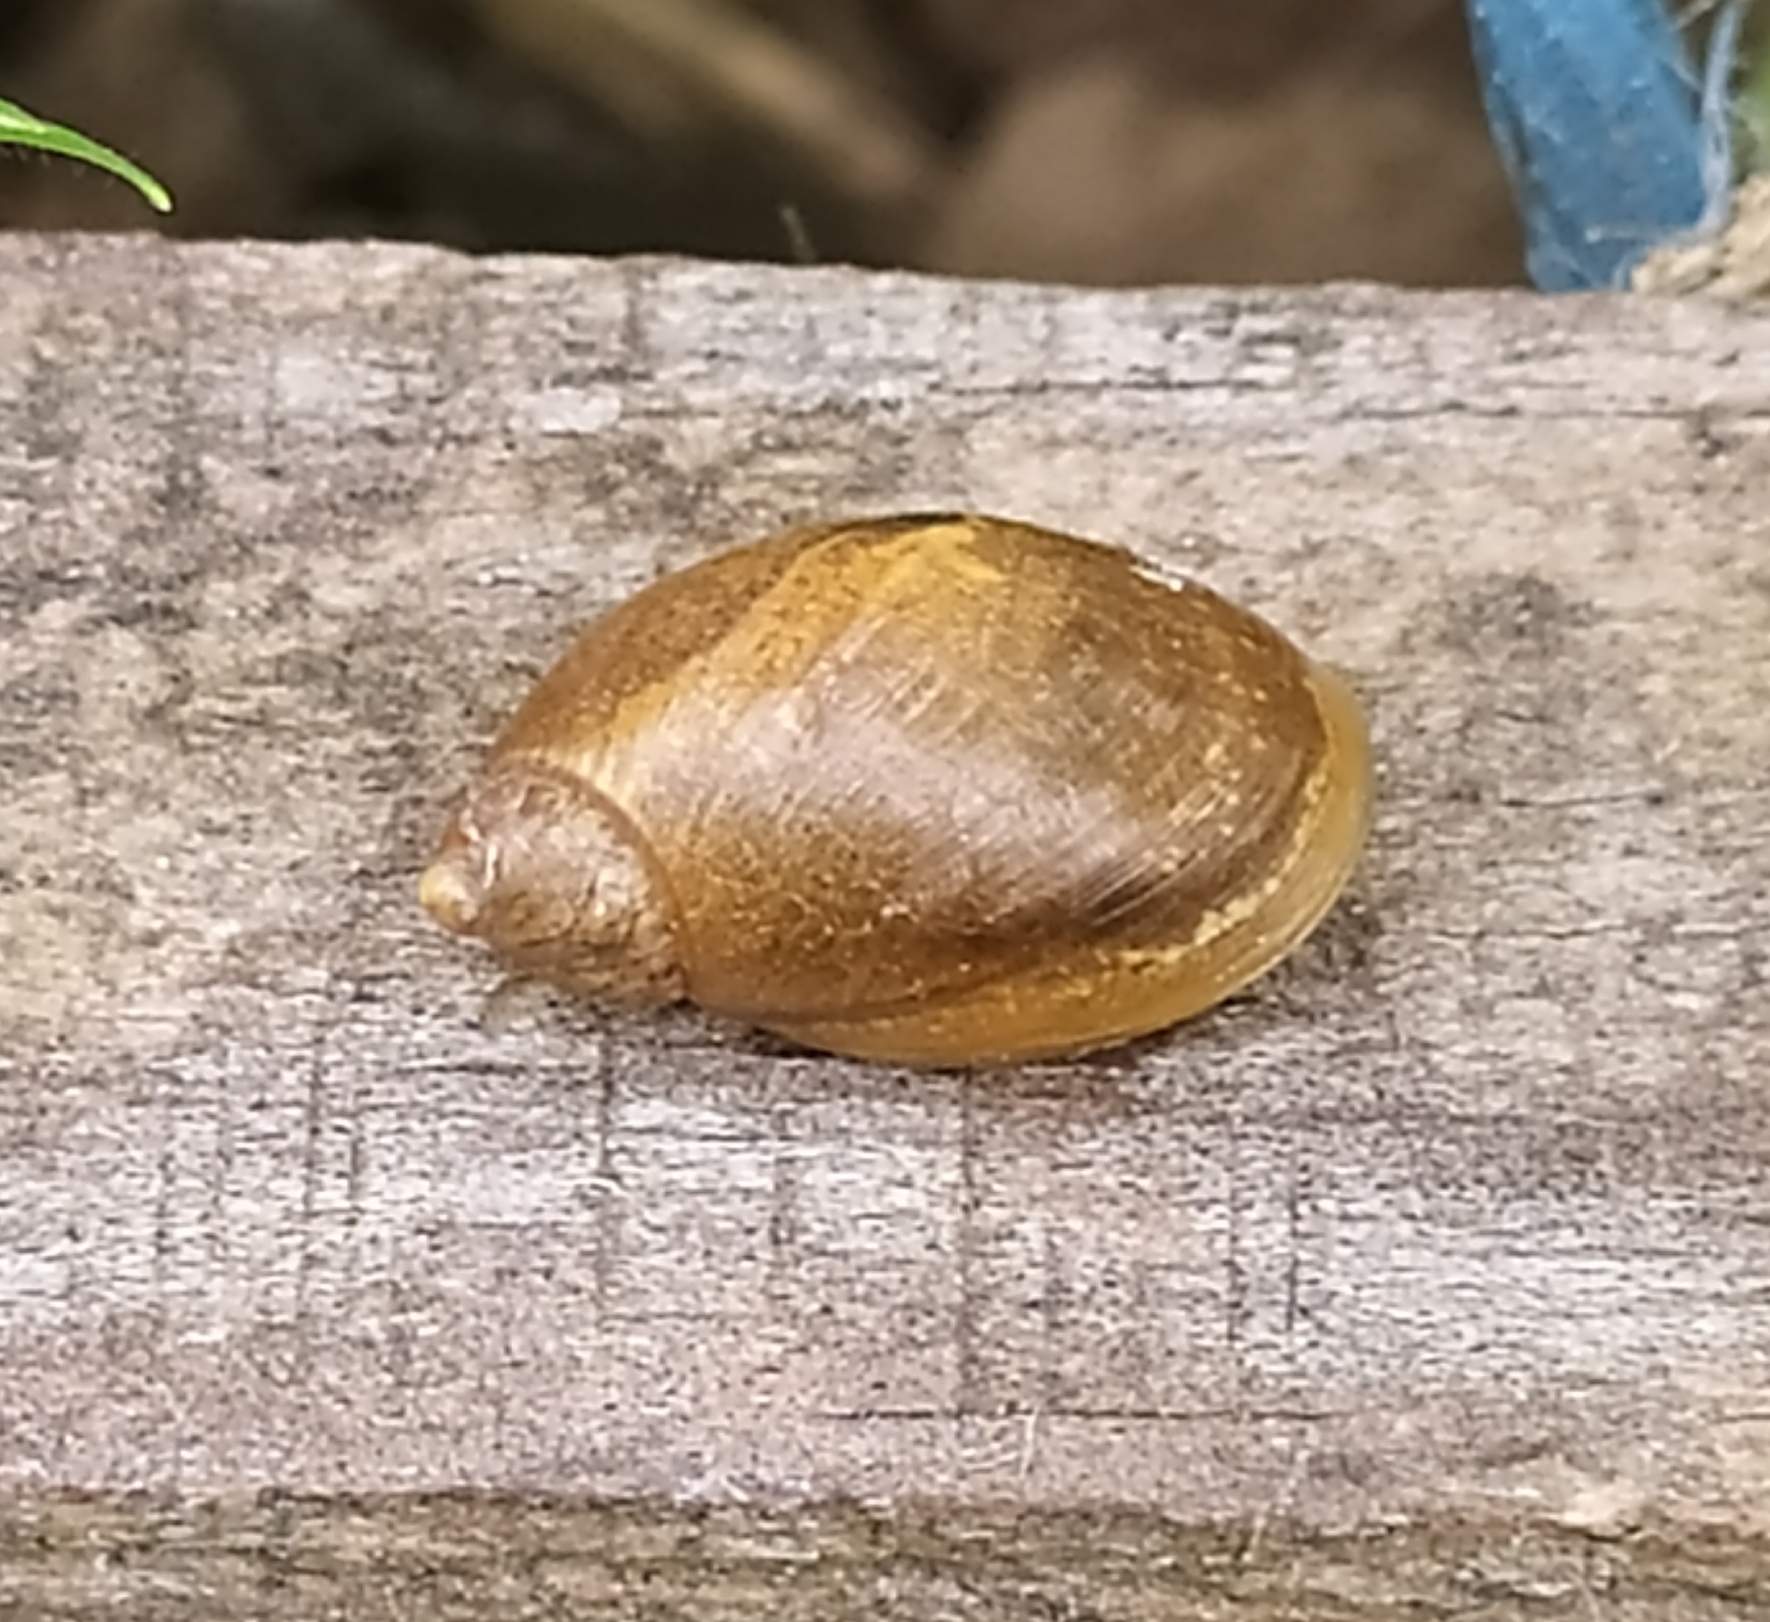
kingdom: Animalia
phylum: Mollusca
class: Gastropoda
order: Stylommatophora
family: Succineidae
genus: Succinea
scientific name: Succinea putris
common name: European ambersnail
